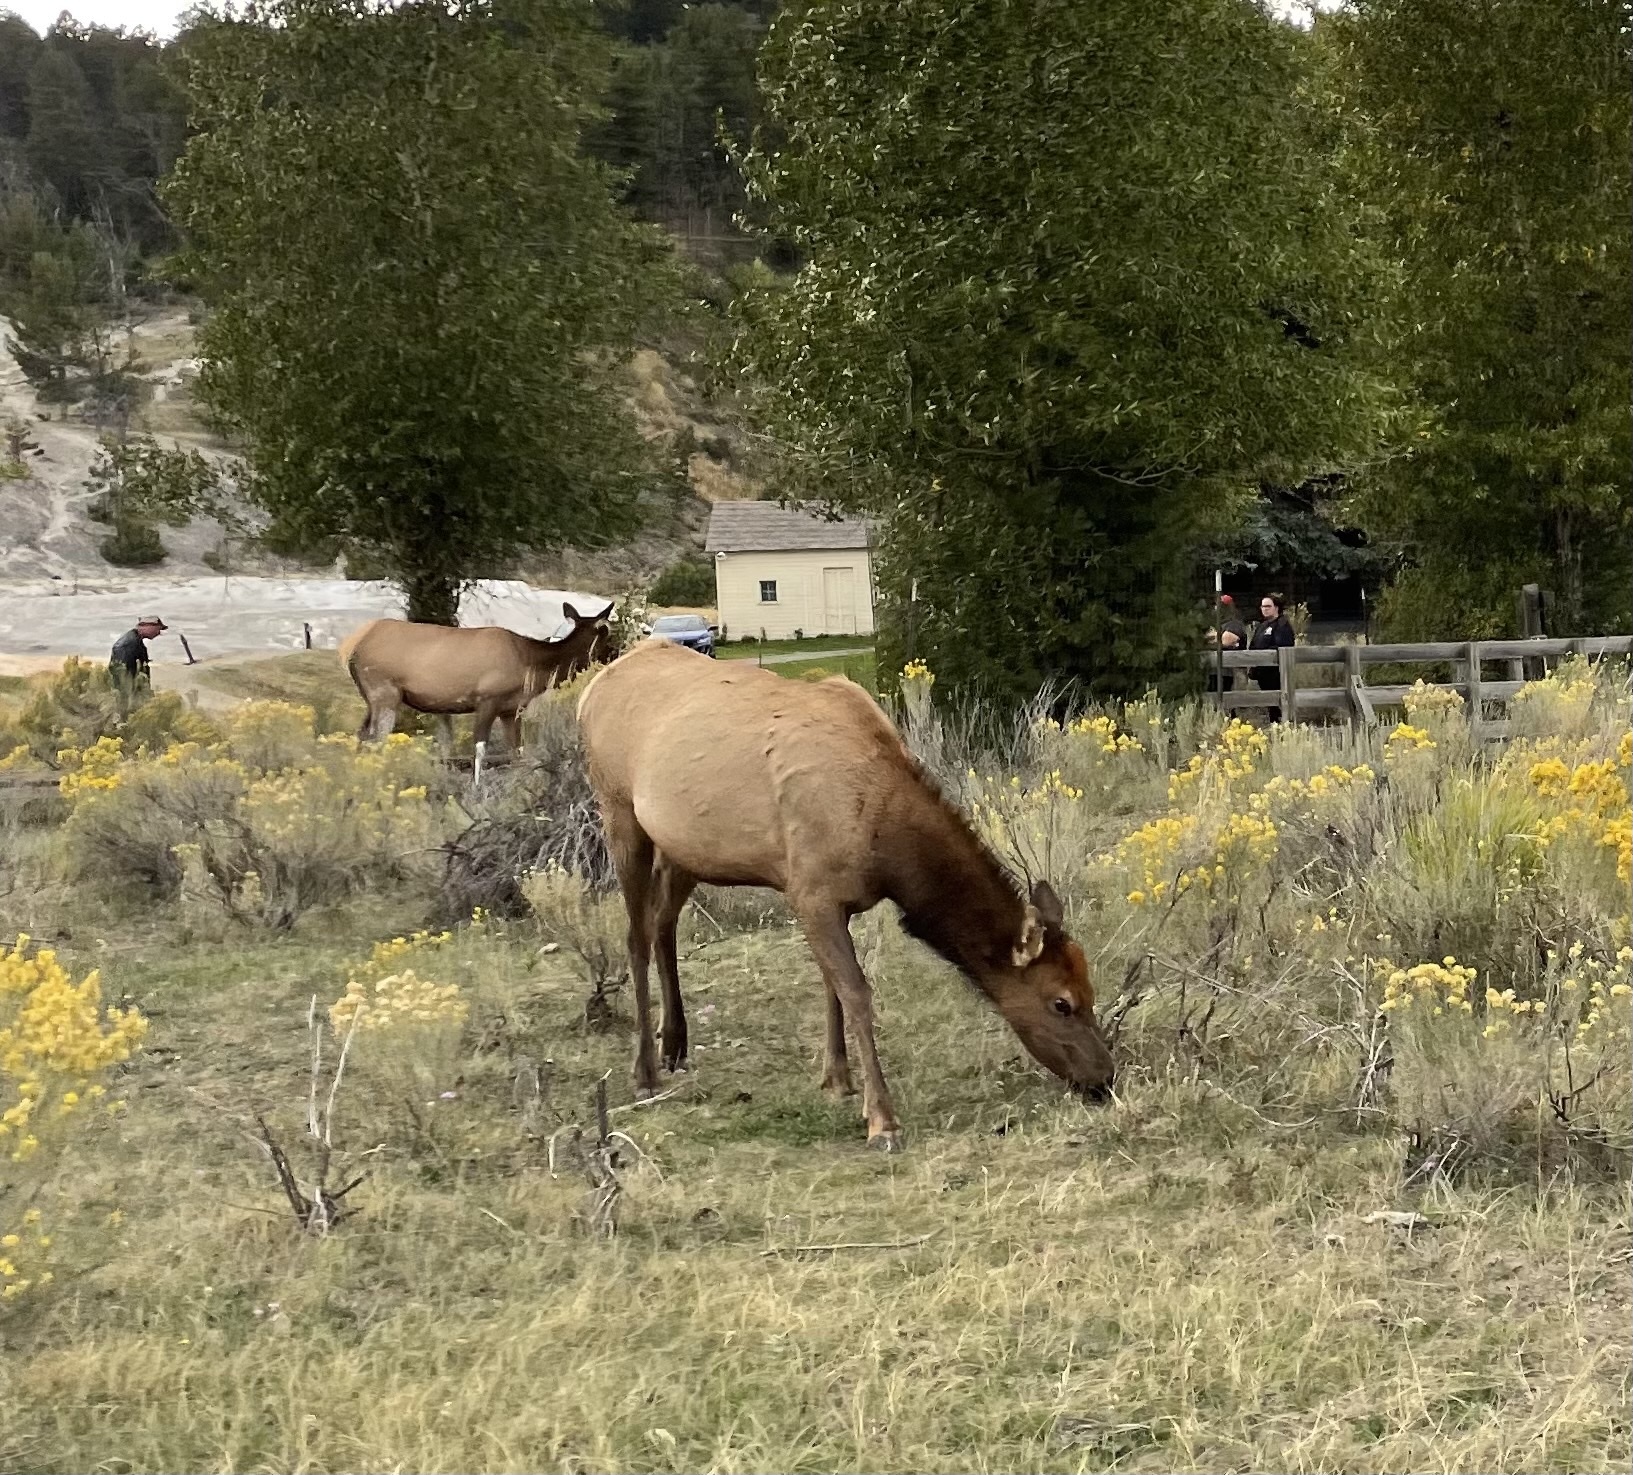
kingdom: Animalia
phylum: Chordata
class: Mammalia
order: Artiodactyla
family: Cervidae
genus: Cervus
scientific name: Cervus elaphus
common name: Red deer
